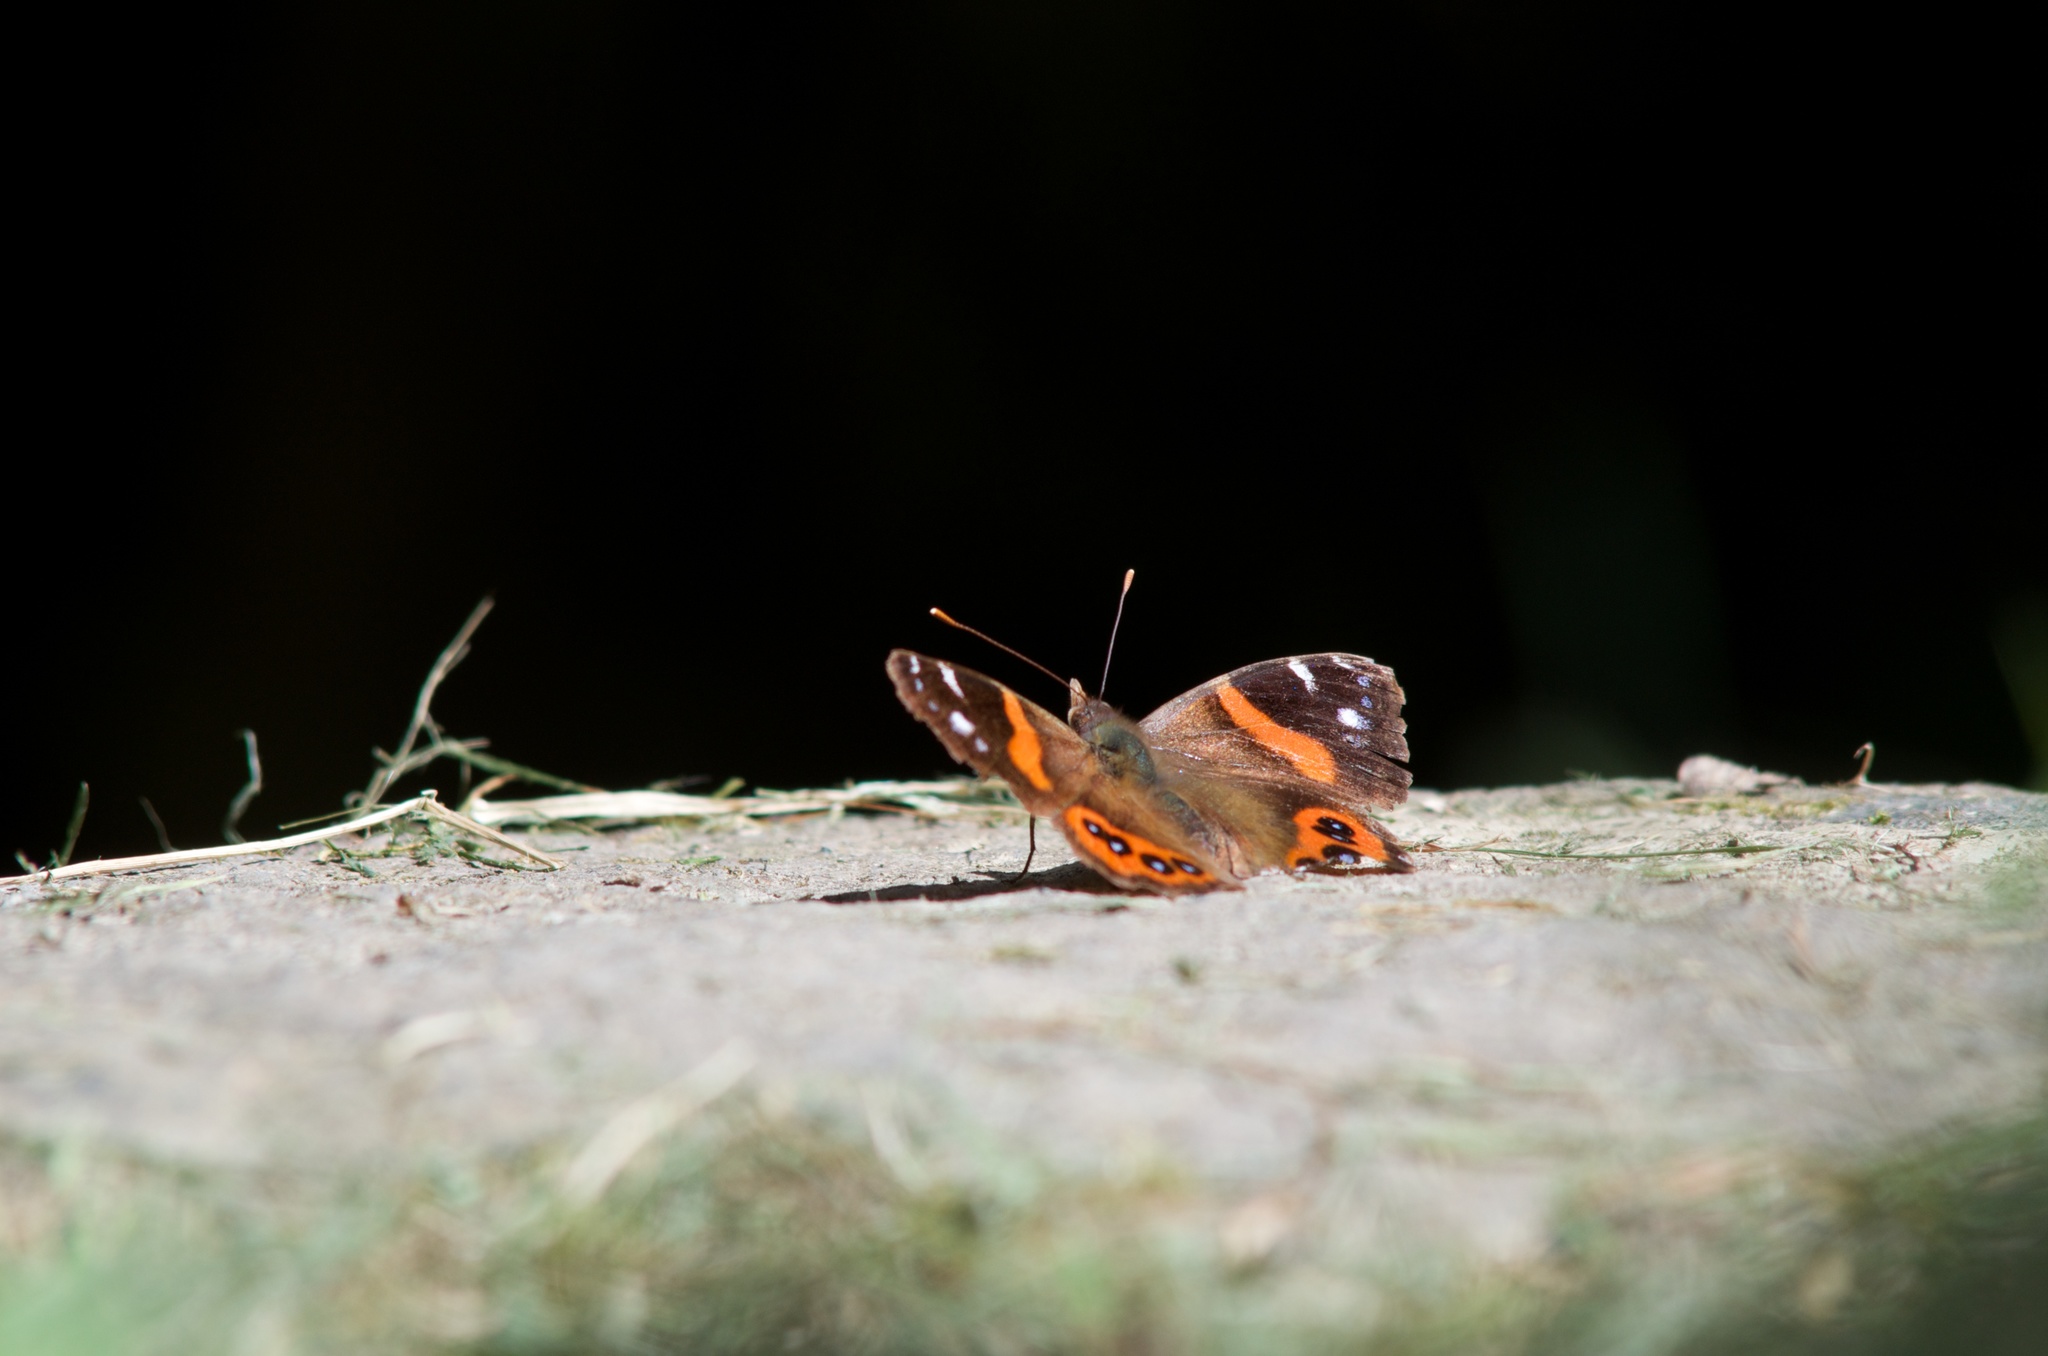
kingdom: Animalia
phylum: Arthropoda
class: Insecta
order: Lepidoptera
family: Nymphalidae
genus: Vanessa
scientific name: Vanessa gonerilla
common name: New zealand red admiral
